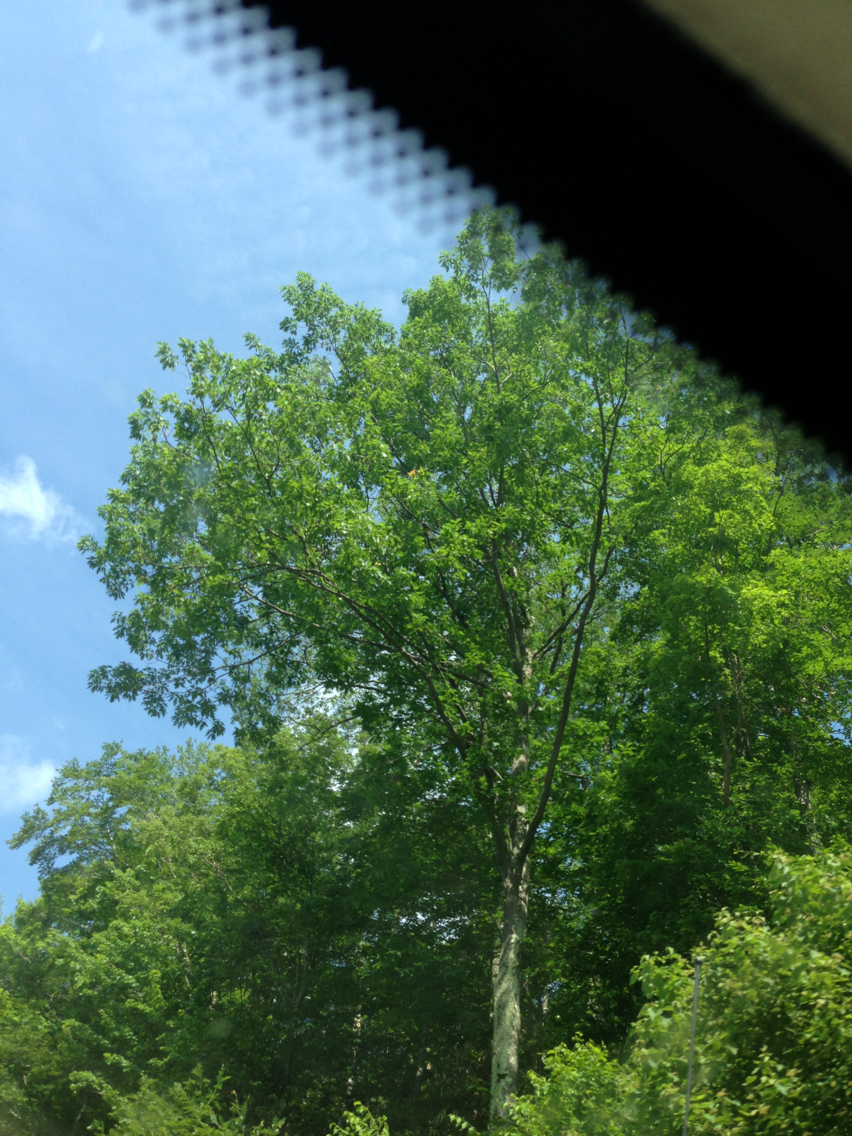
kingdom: Plantae
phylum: Tracheophyta
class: Magnoliopsida
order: Fagales
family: Fagaceae
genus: Quercus
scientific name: Quercus rubra
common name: Red oak
